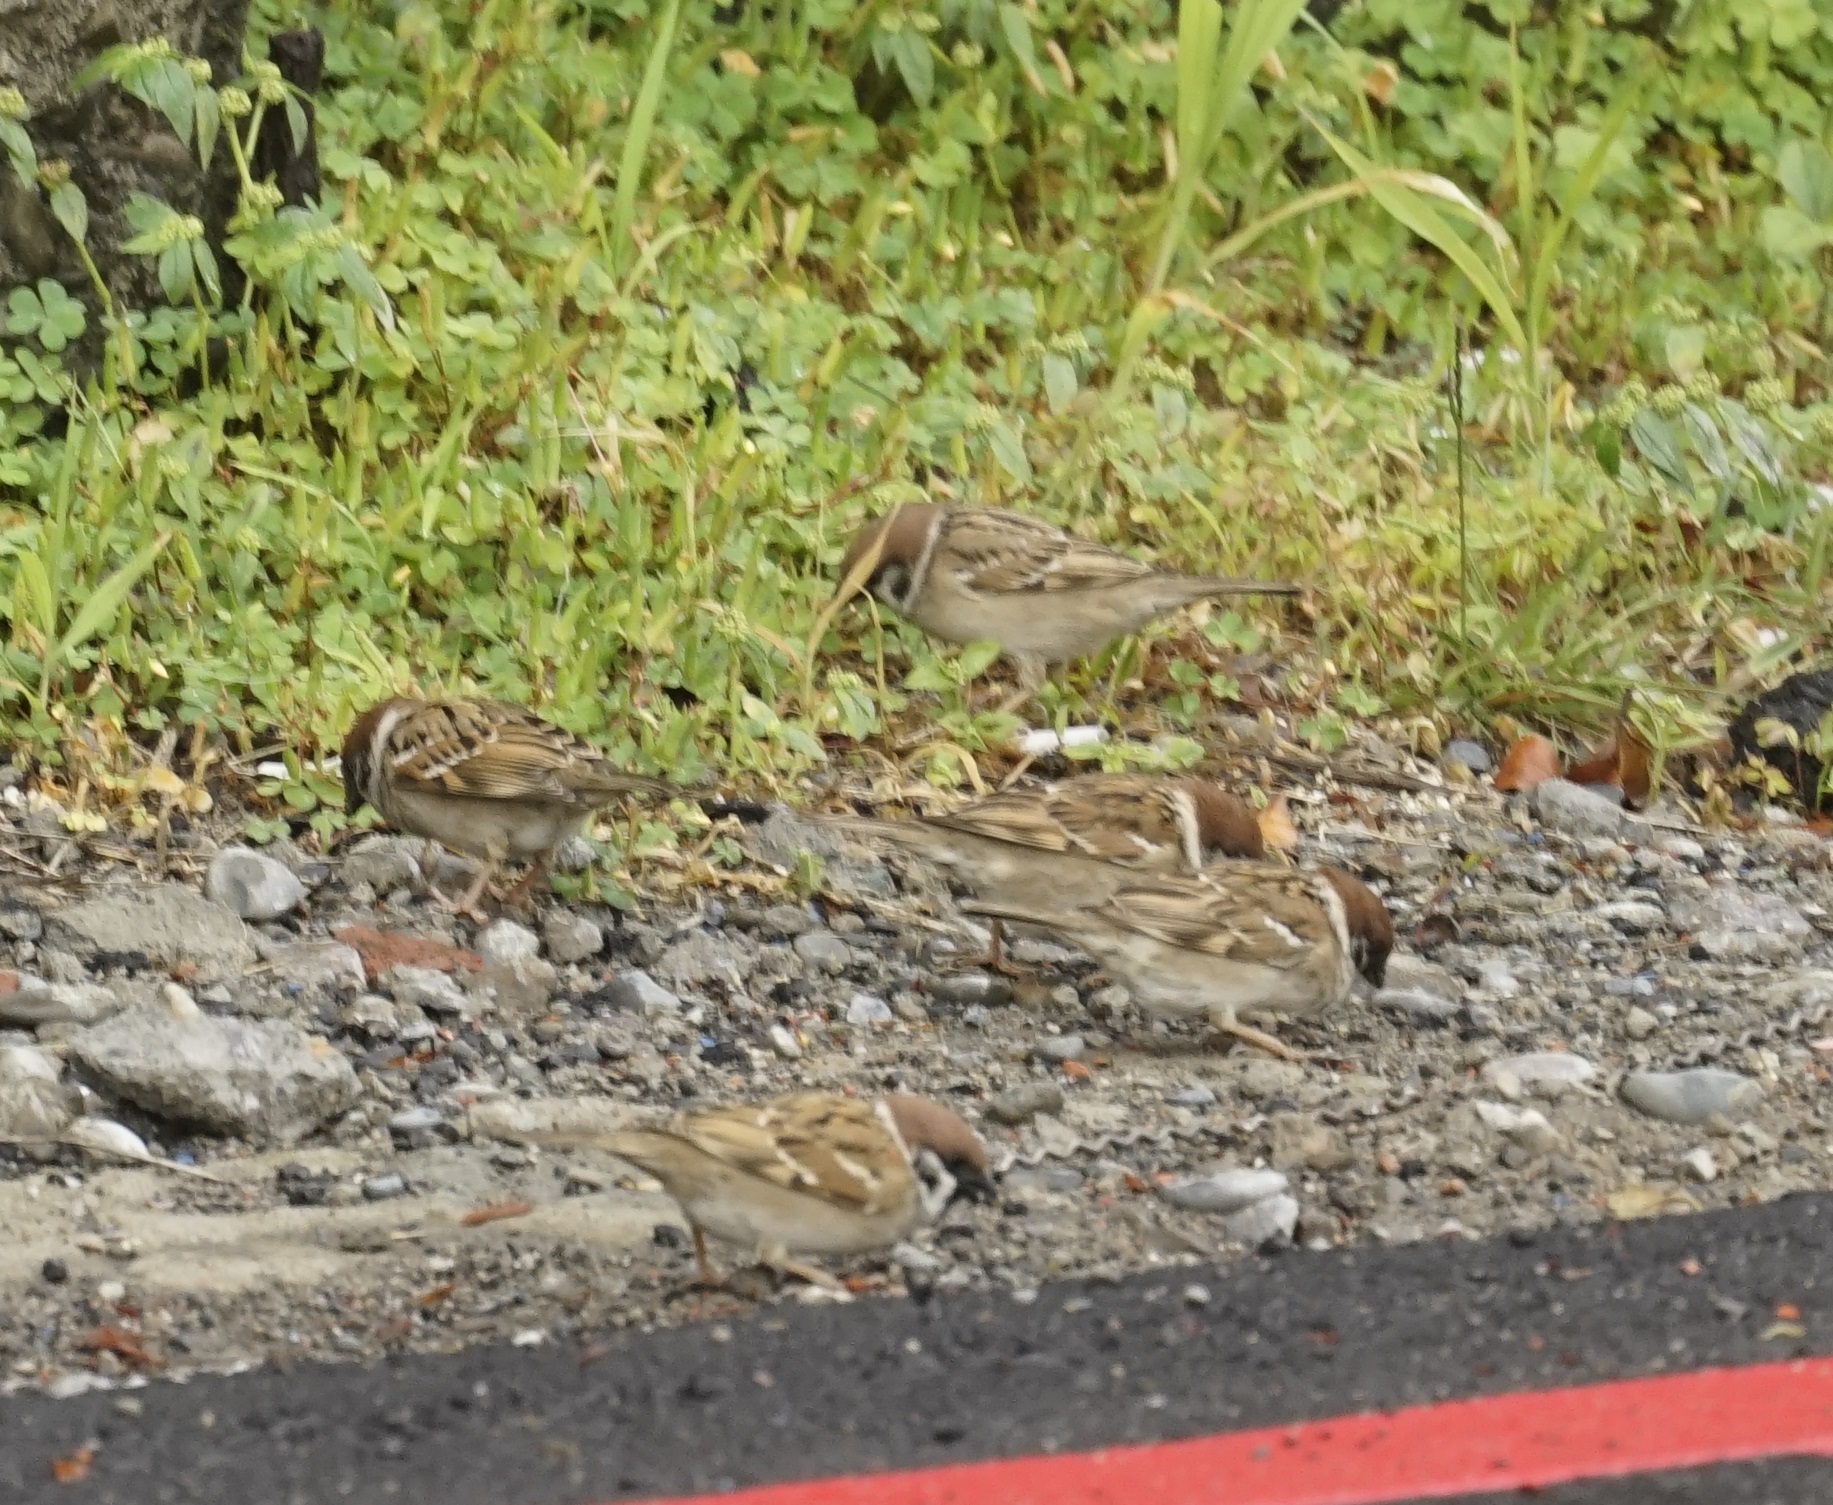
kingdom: Animalia
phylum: Chordata
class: Aves
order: Passeriformes
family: Passeridae
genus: Passer
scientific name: Passer montanus
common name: Eurasian tree sparrow
